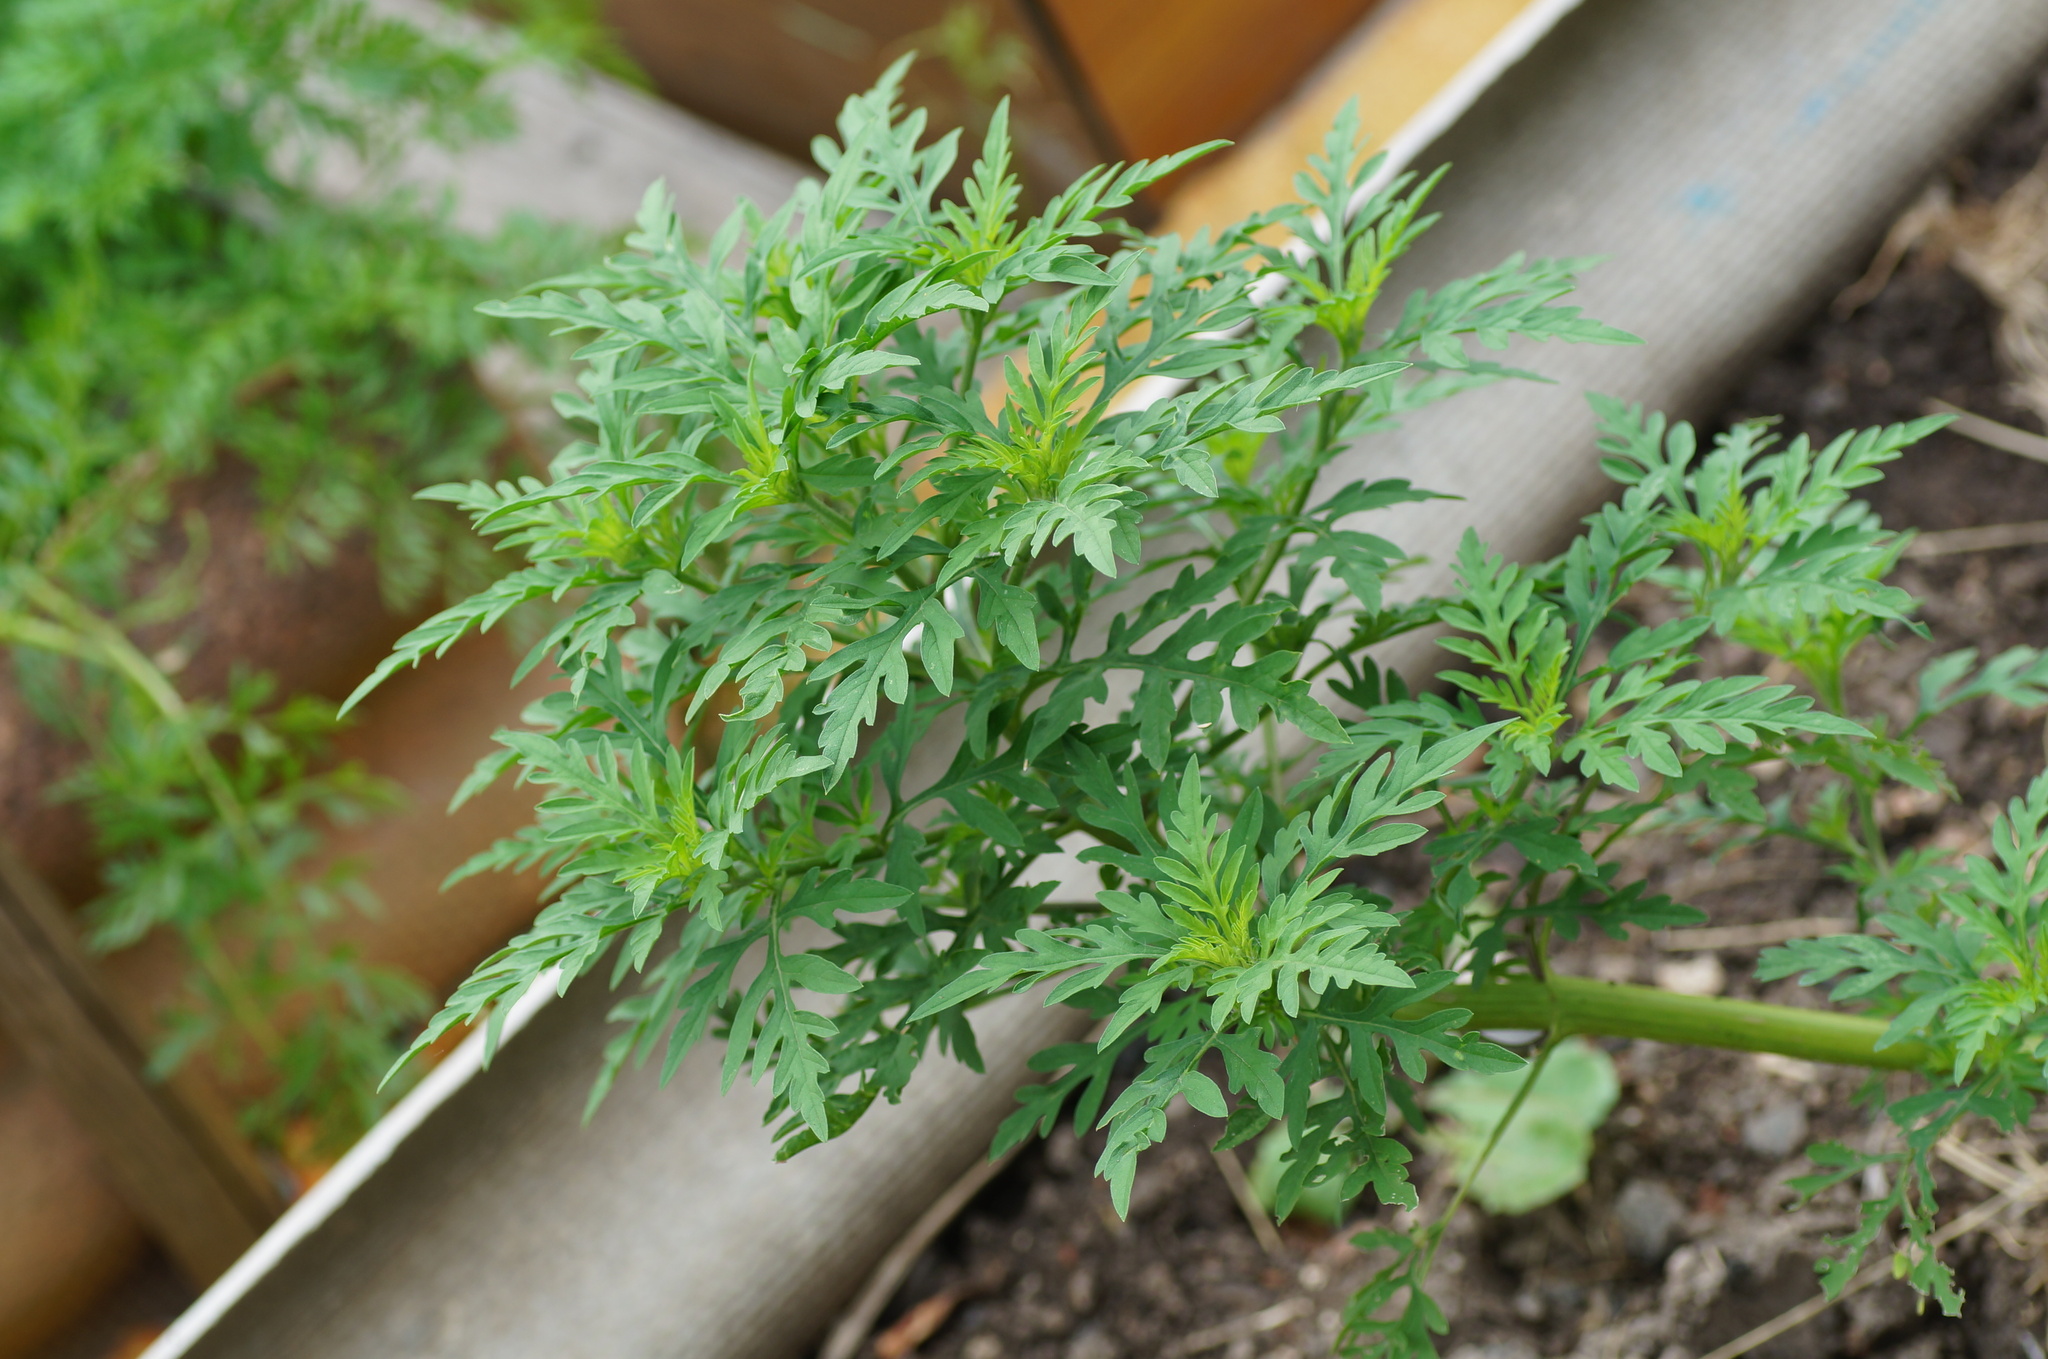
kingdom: Plantae
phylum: Tracheophyta
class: Magnoliopsida
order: Asterales
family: Asteraceae
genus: Ambrosia
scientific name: Ambrosia artemisiifolia
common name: Annual ragweed
